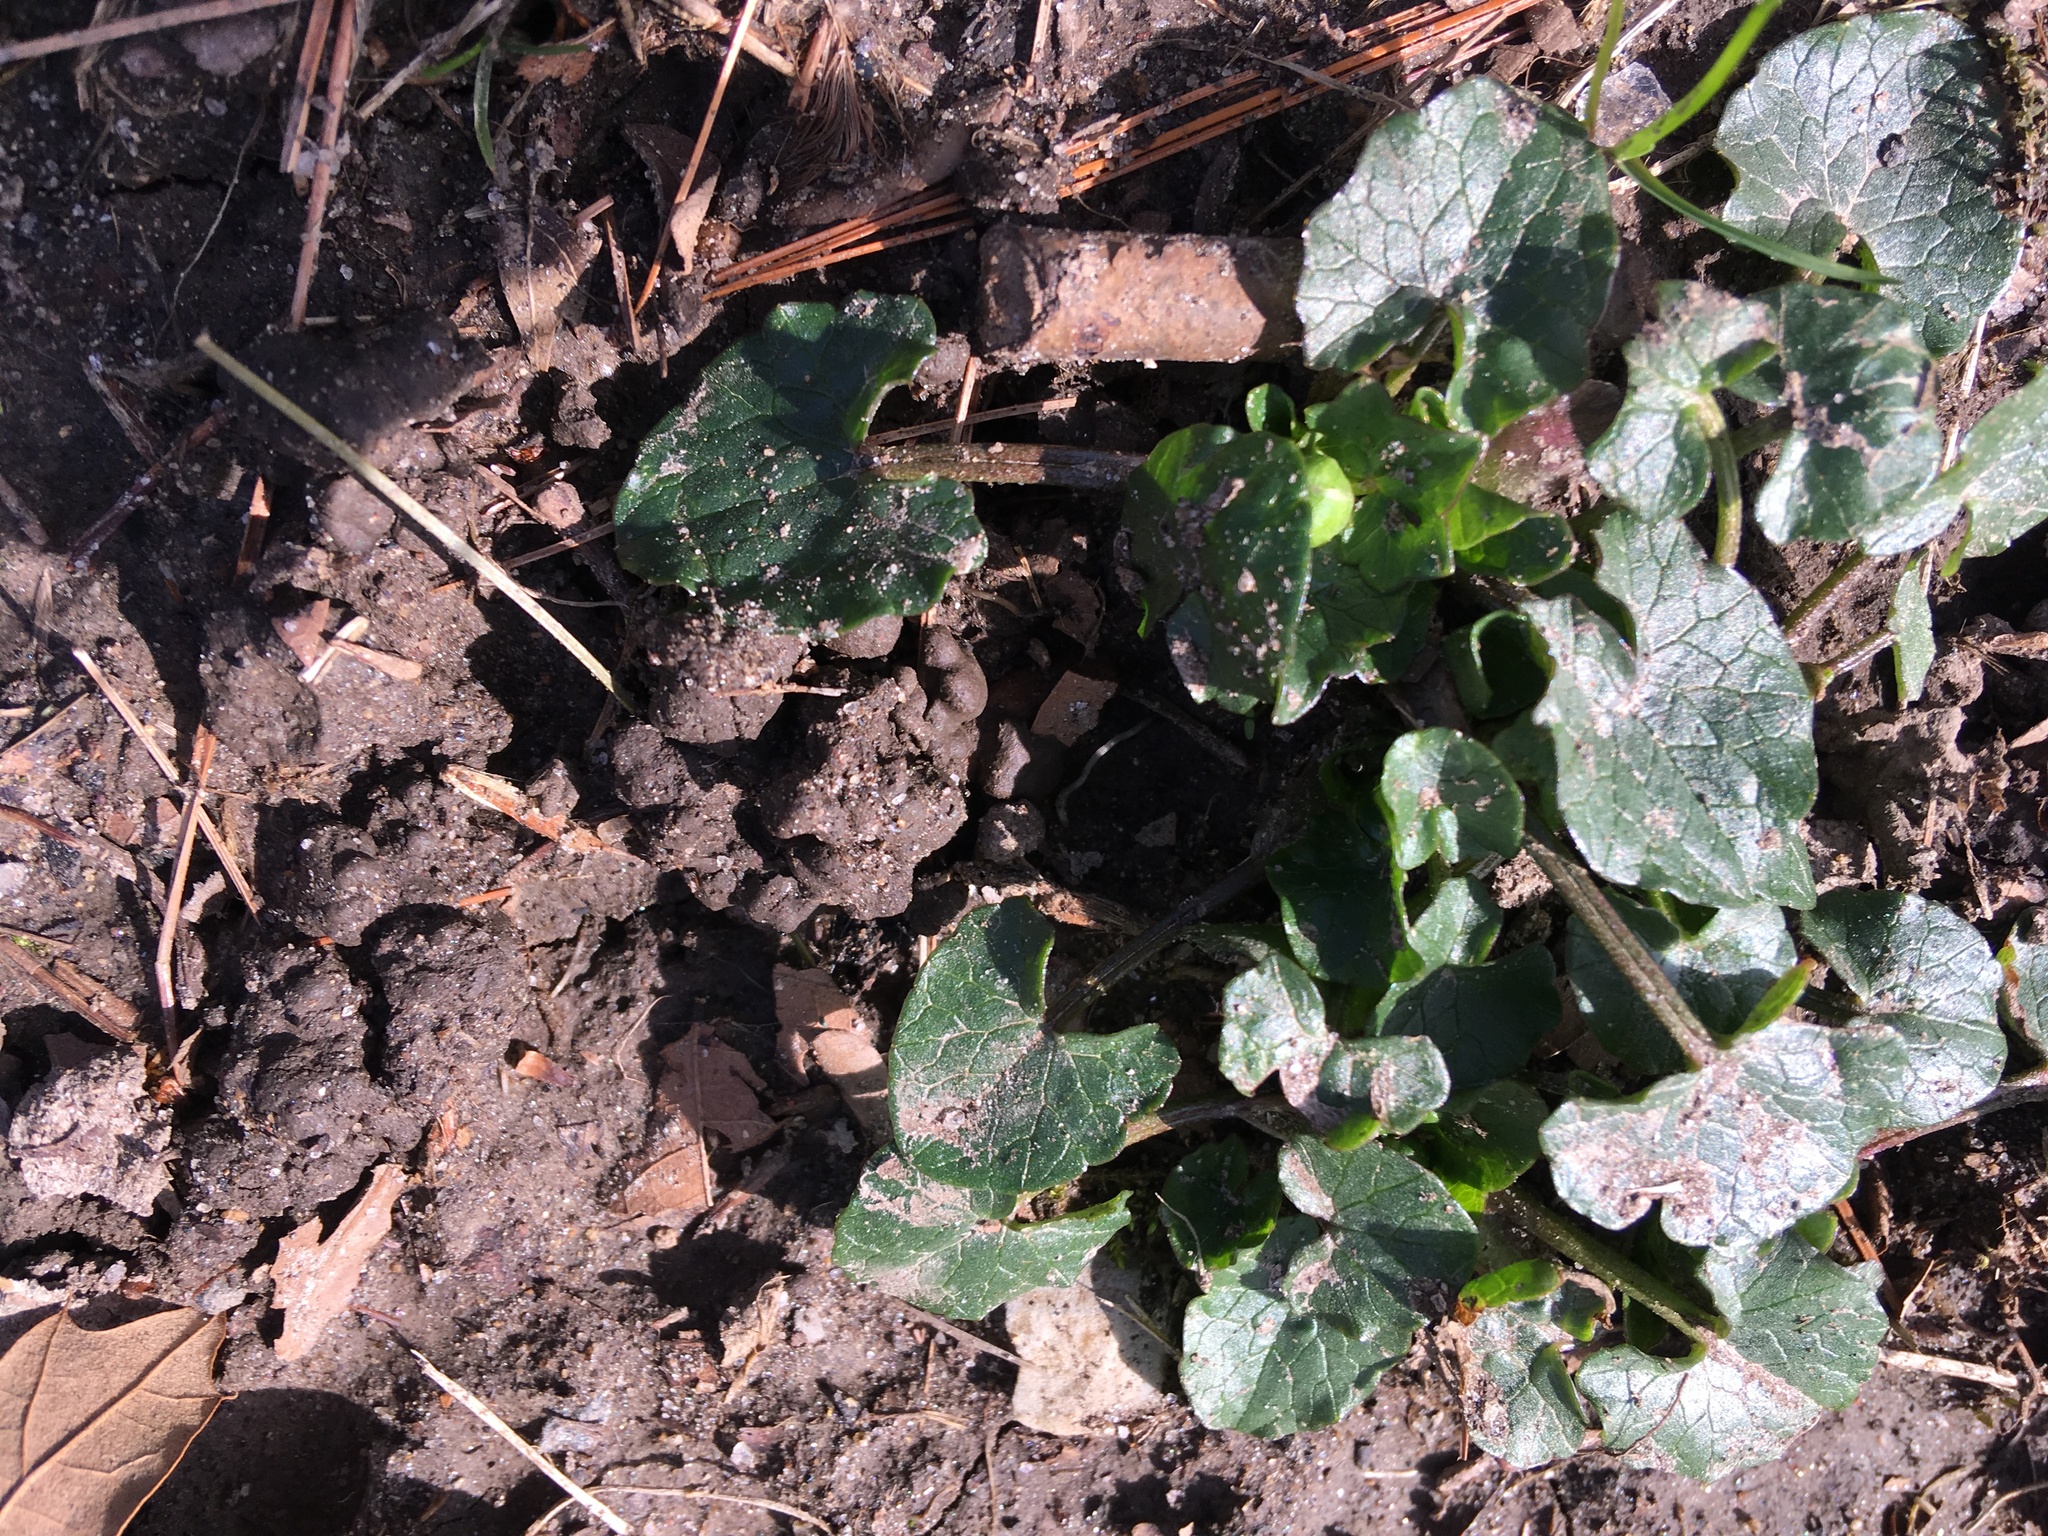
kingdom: Plantae
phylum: Tracheophyta
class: Magnoliopsida
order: Ranunculales
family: Ranunculaceae
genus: Ficaria
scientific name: Ficaria verna
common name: Lesser celandine
